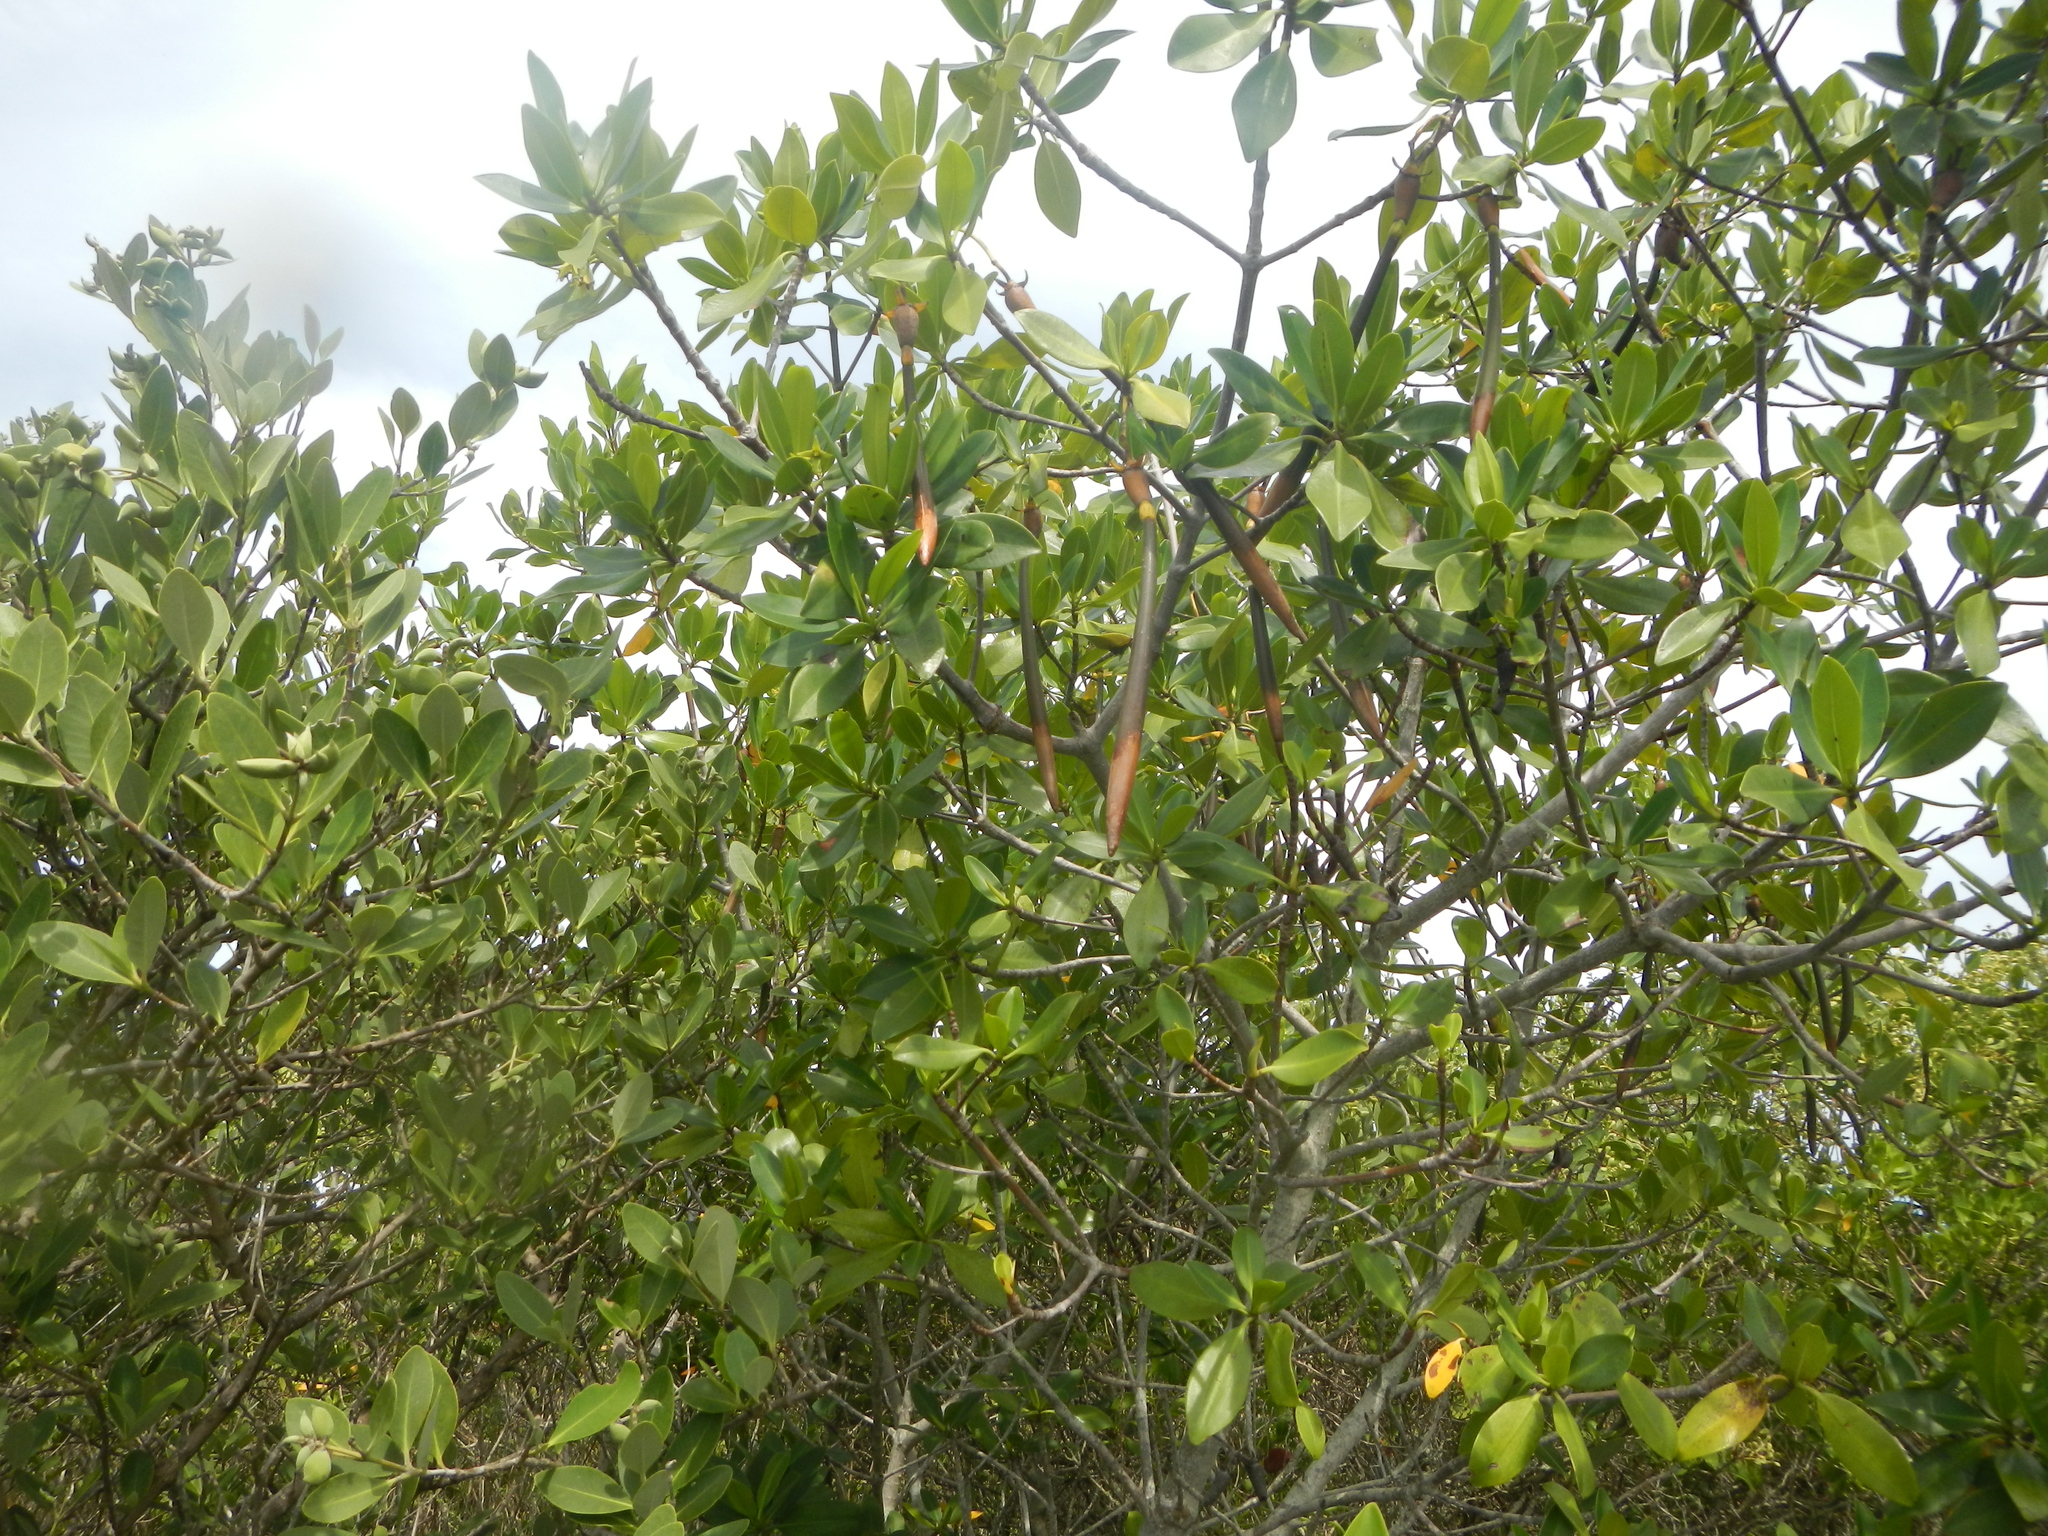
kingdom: Plantae
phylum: Tracheophyta
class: Magnoliopsida
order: Malpighiales
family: Rhizophoraceae
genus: Rhizophora
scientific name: Rhizophora mangle
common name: Red mangrove
